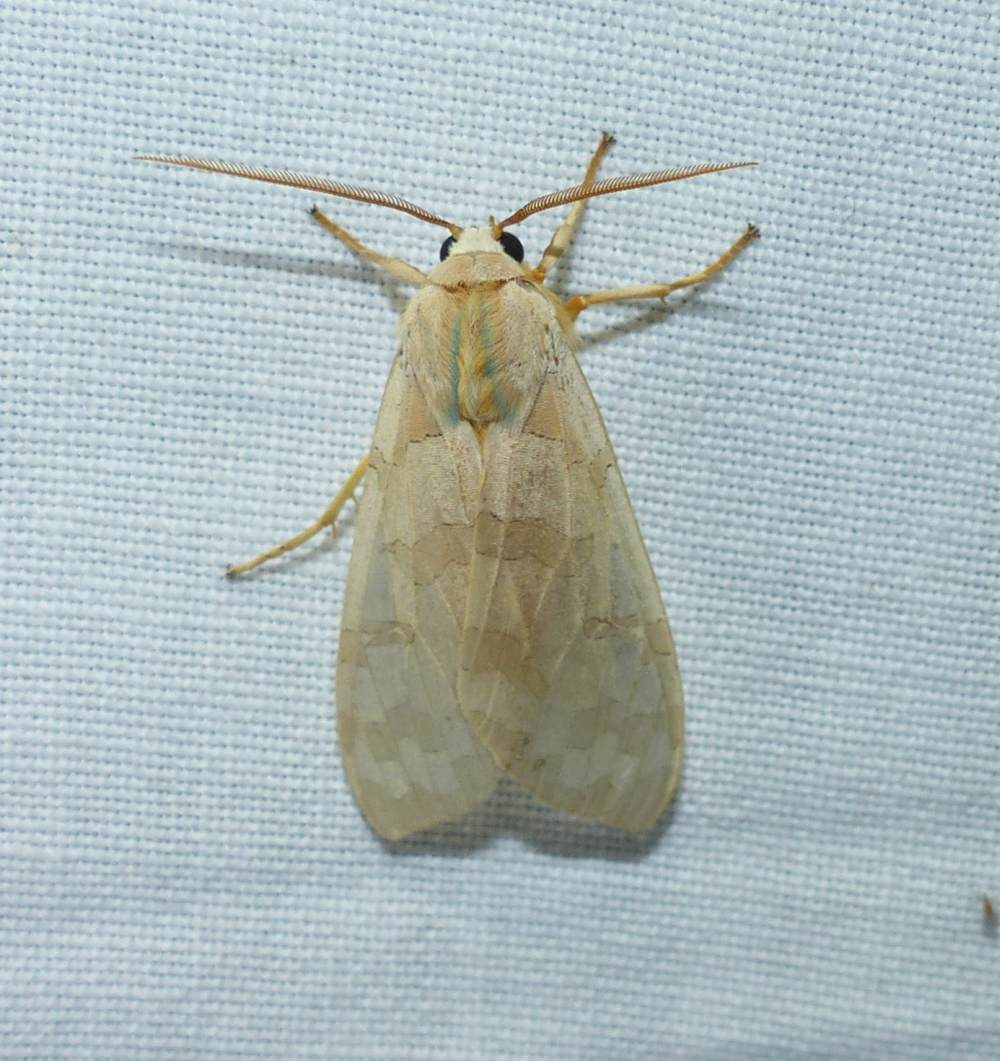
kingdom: Animalia
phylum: Arthropoda
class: Insecta
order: Lepidoptera
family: Erebidae
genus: Halysidota
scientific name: Halysidota tessellaris
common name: Banded tussock moth
